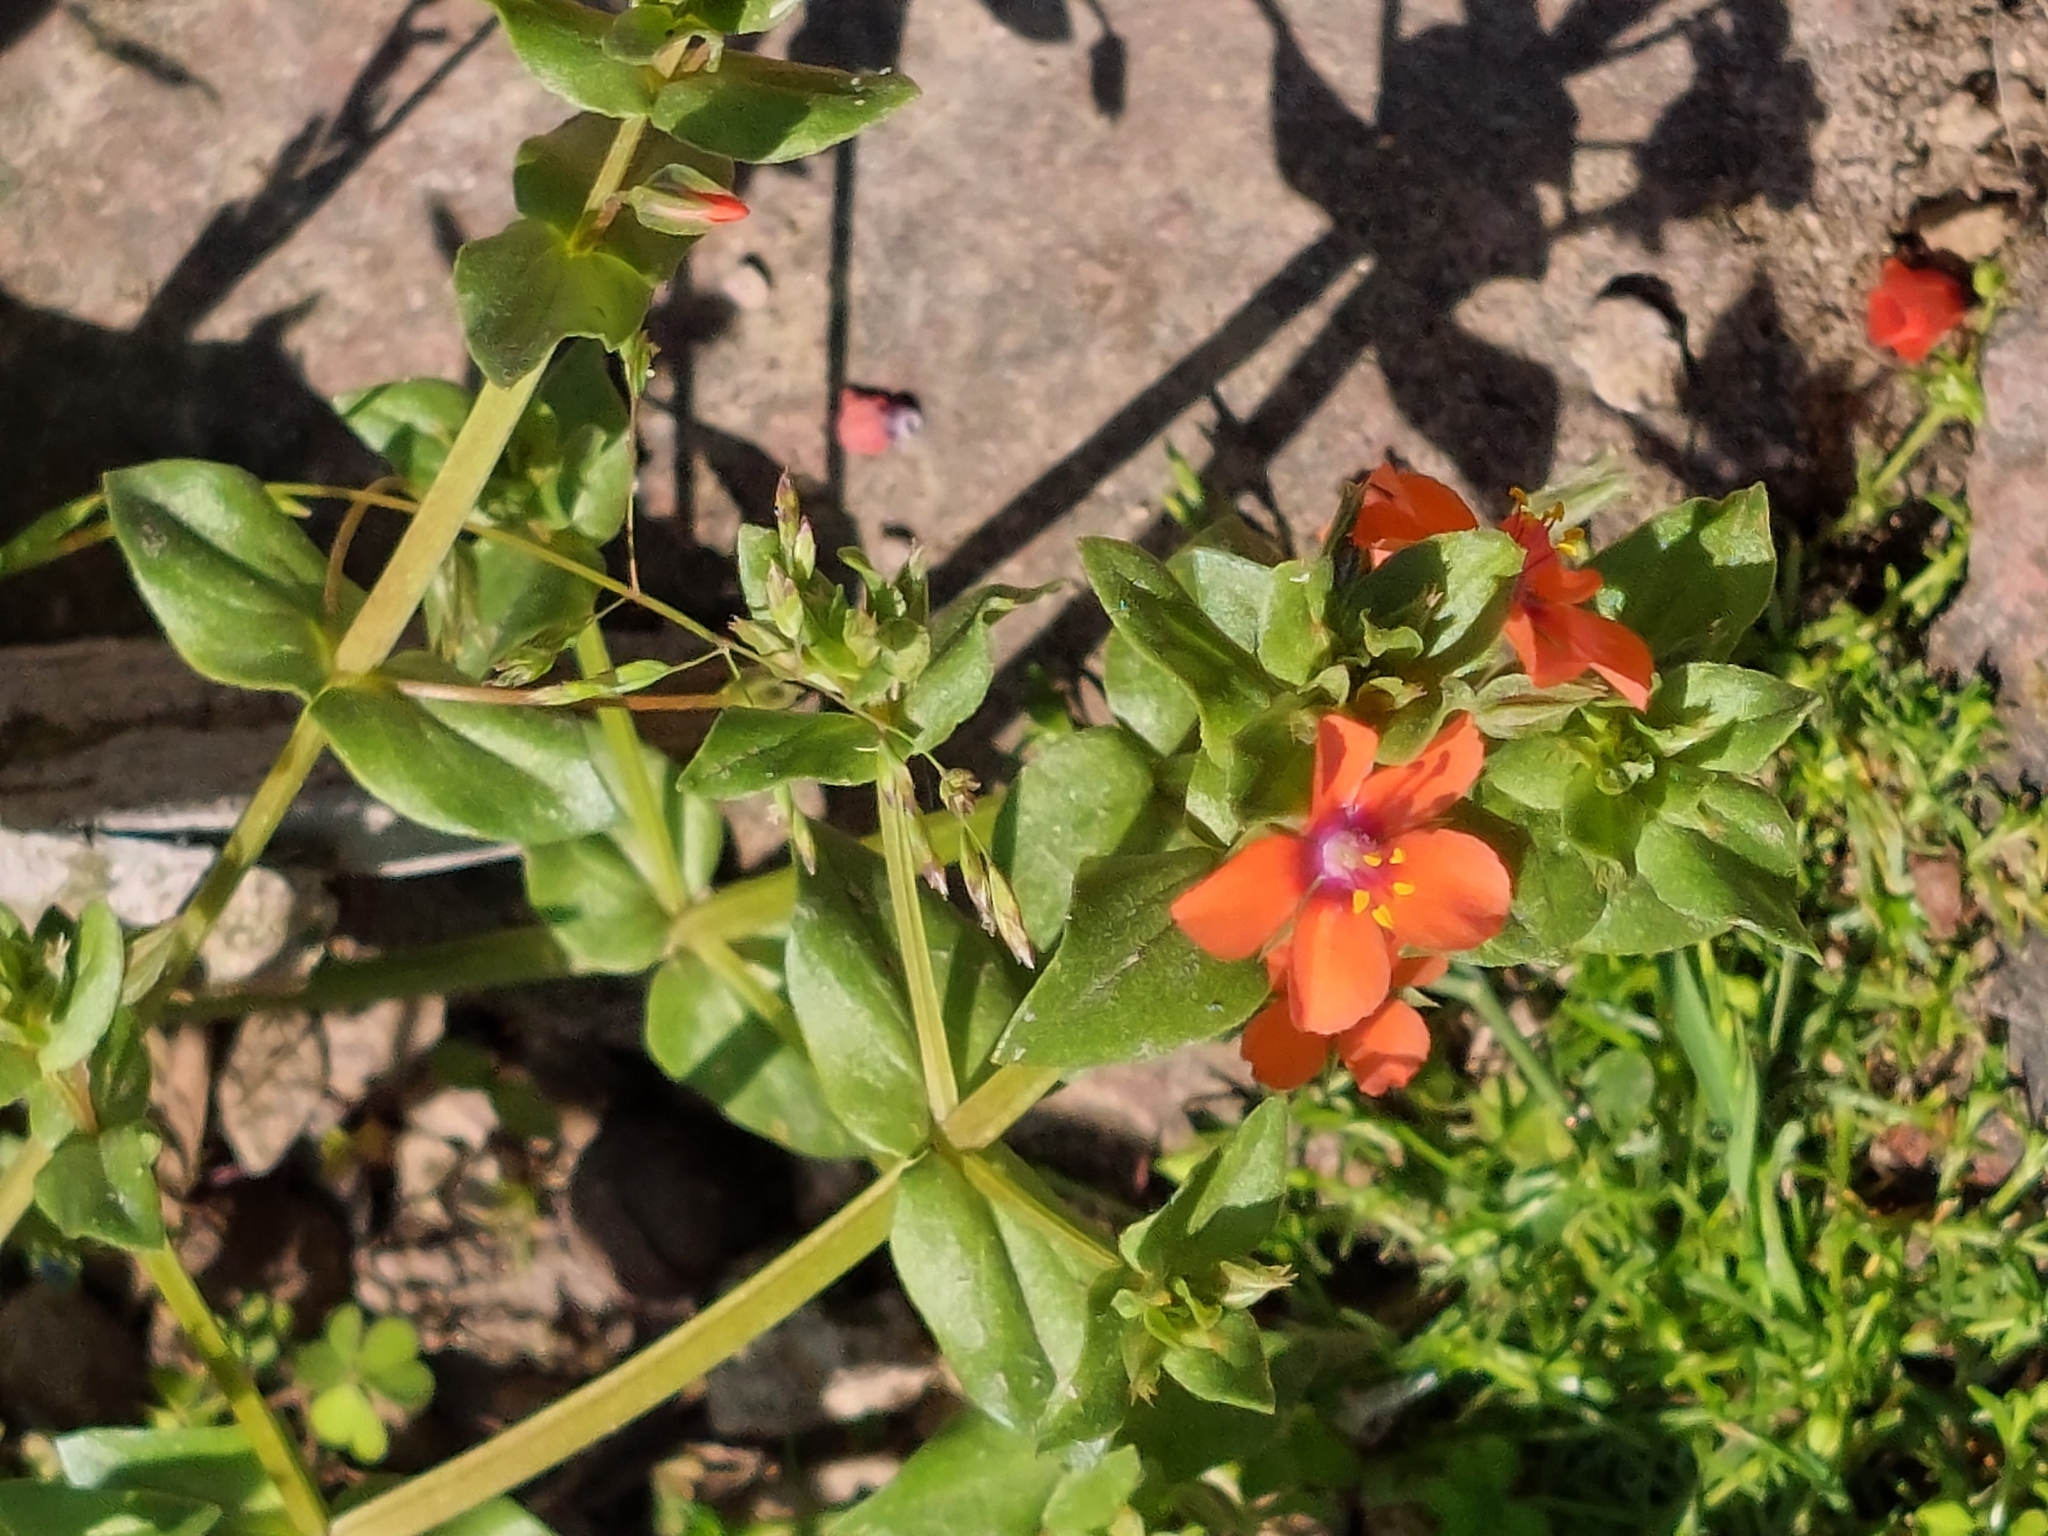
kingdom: Plantae
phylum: Tracheophyta
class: Magnoliopsida
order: Ericales
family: Primulaceae
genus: Lysimachia
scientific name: Lysimachia arvensis
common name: Scarlet pimpernel
